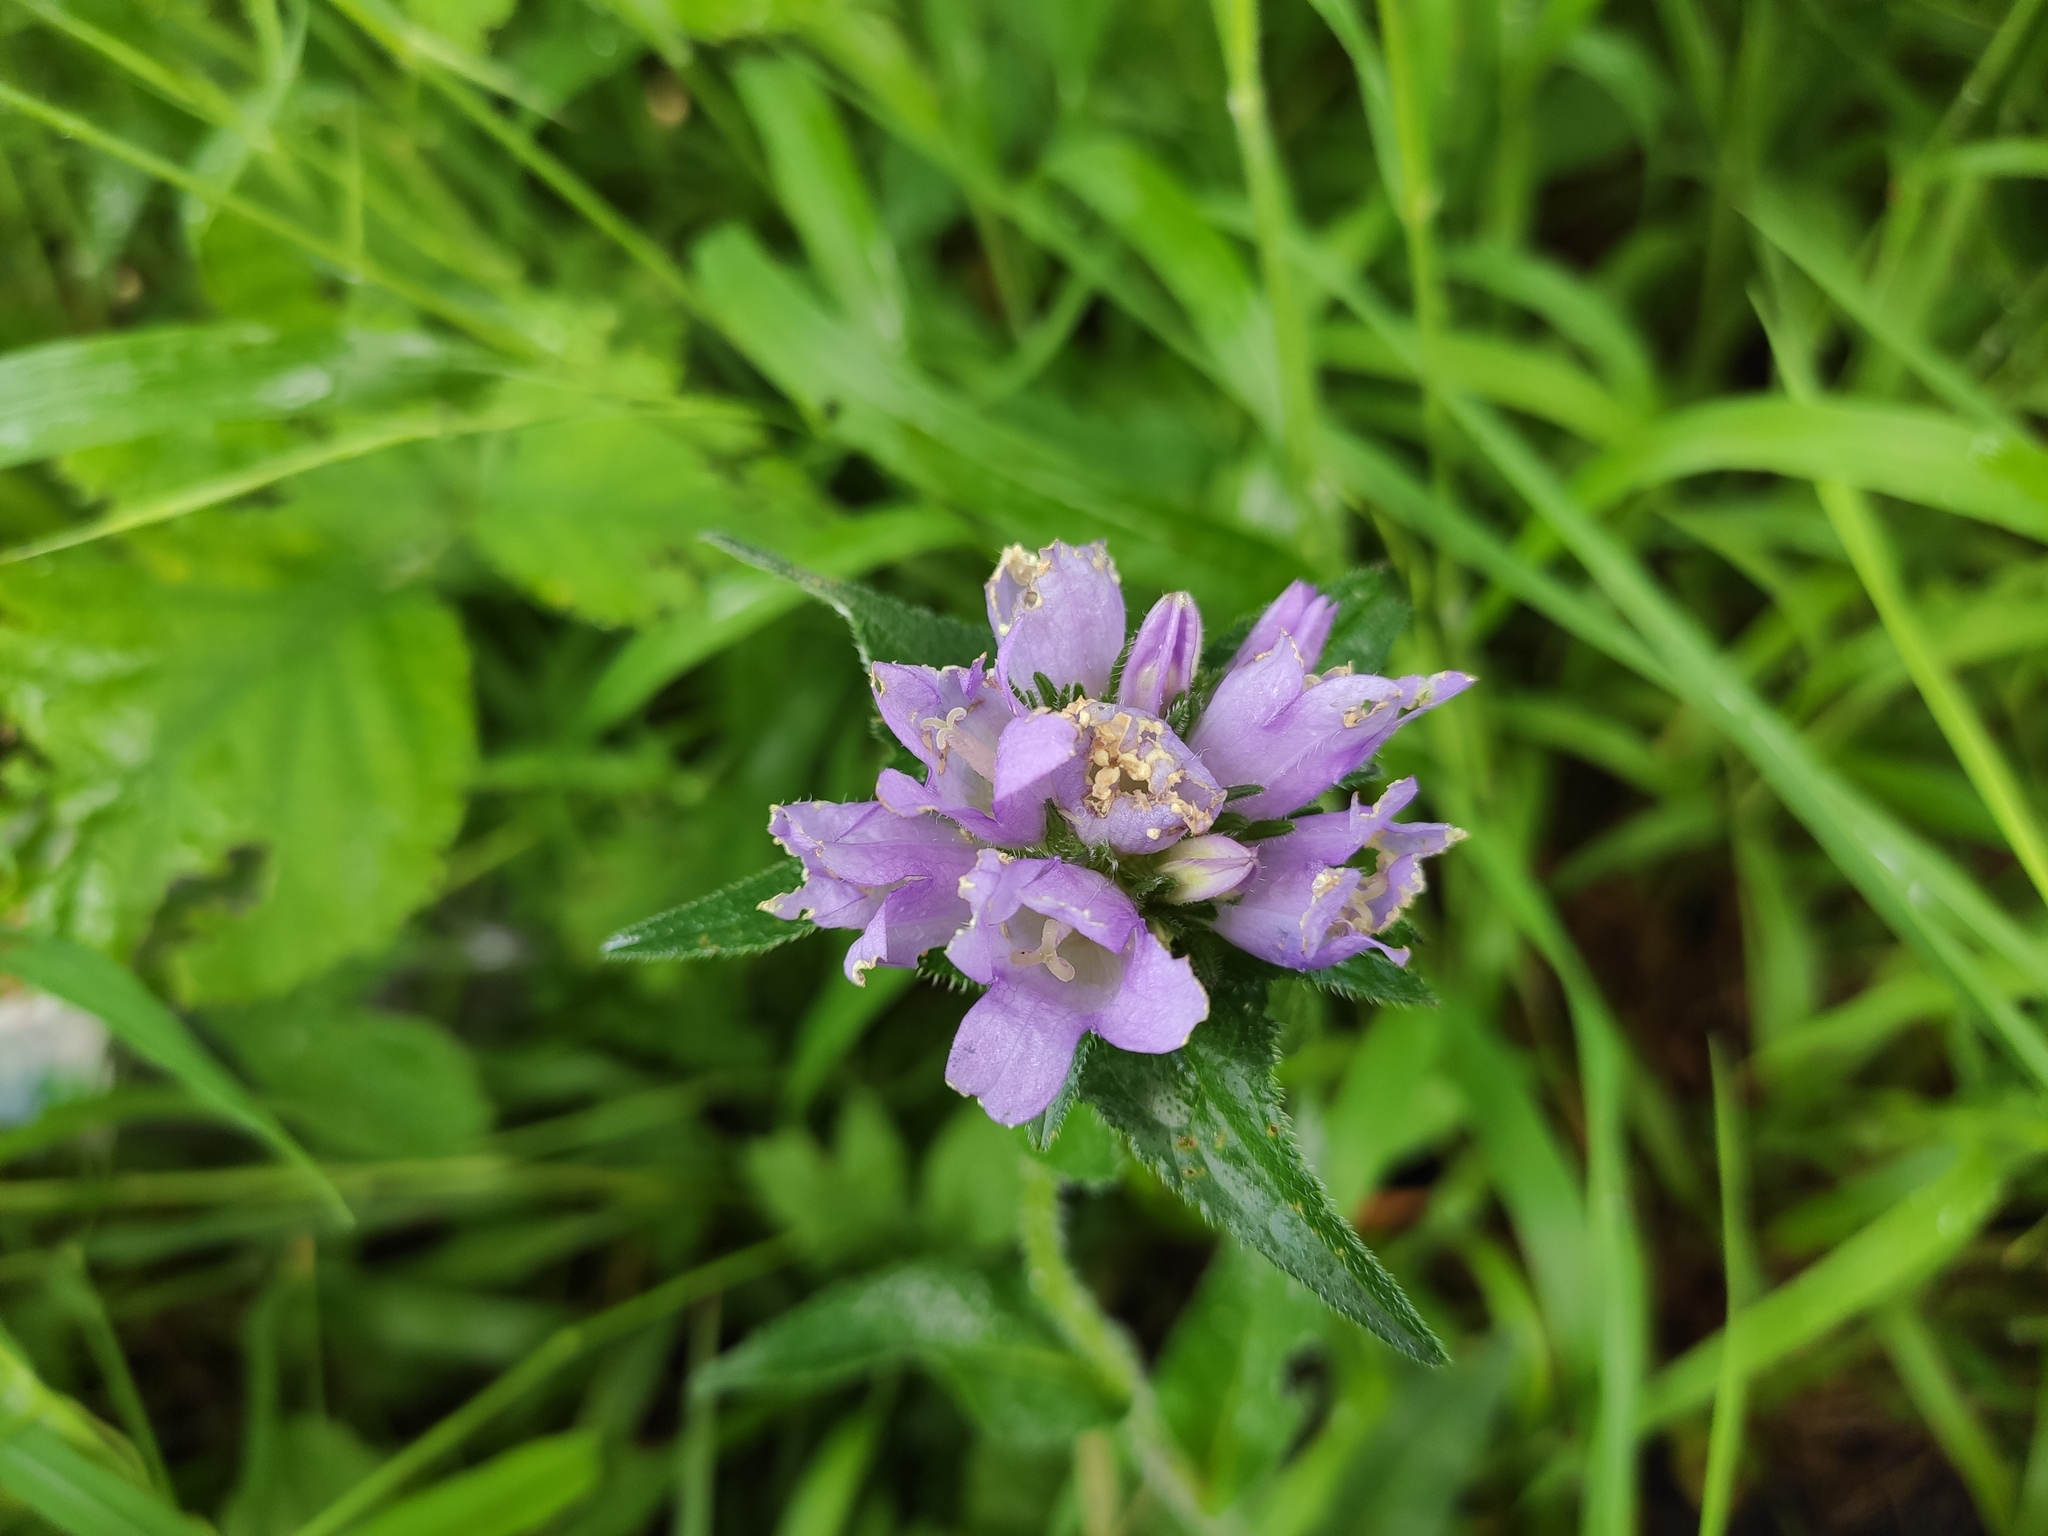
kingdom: Plantae
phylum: Tracheophyta
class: Magnoliopsida
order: Asterales
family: Campanulaceae
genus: Campanula
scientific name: Campanula glomerata
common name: Clustered bellflower
